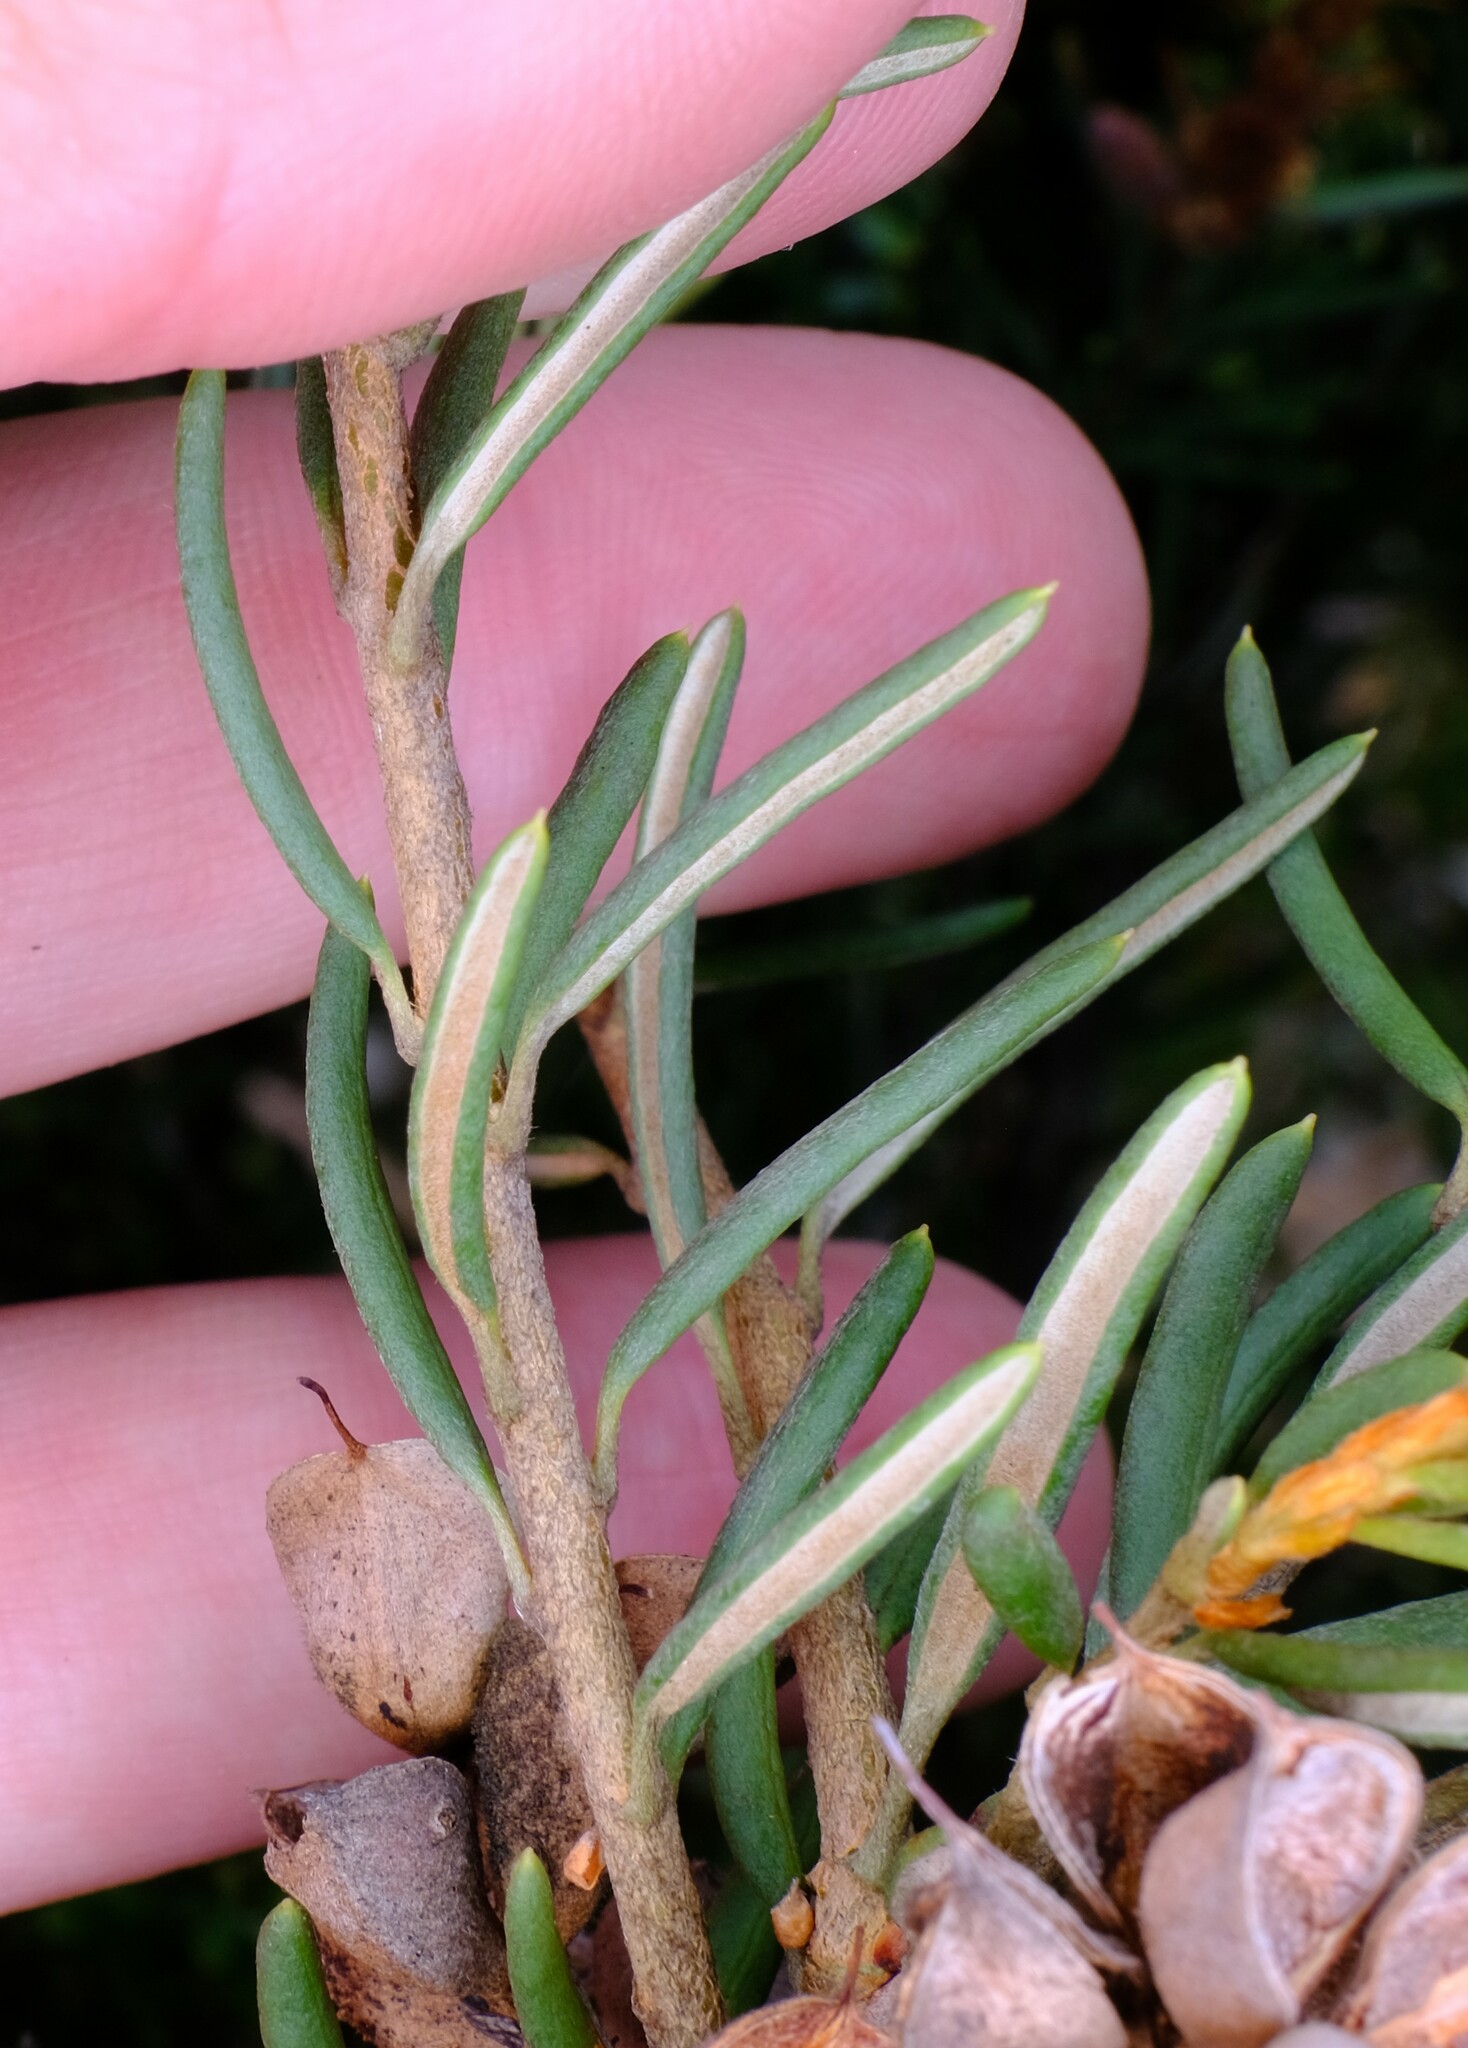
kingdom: Plantae
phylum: Tracheophyta
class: Magnoliopsida
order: Proteales
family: Proteaceae
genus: Orites
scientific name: Orites revolutus
